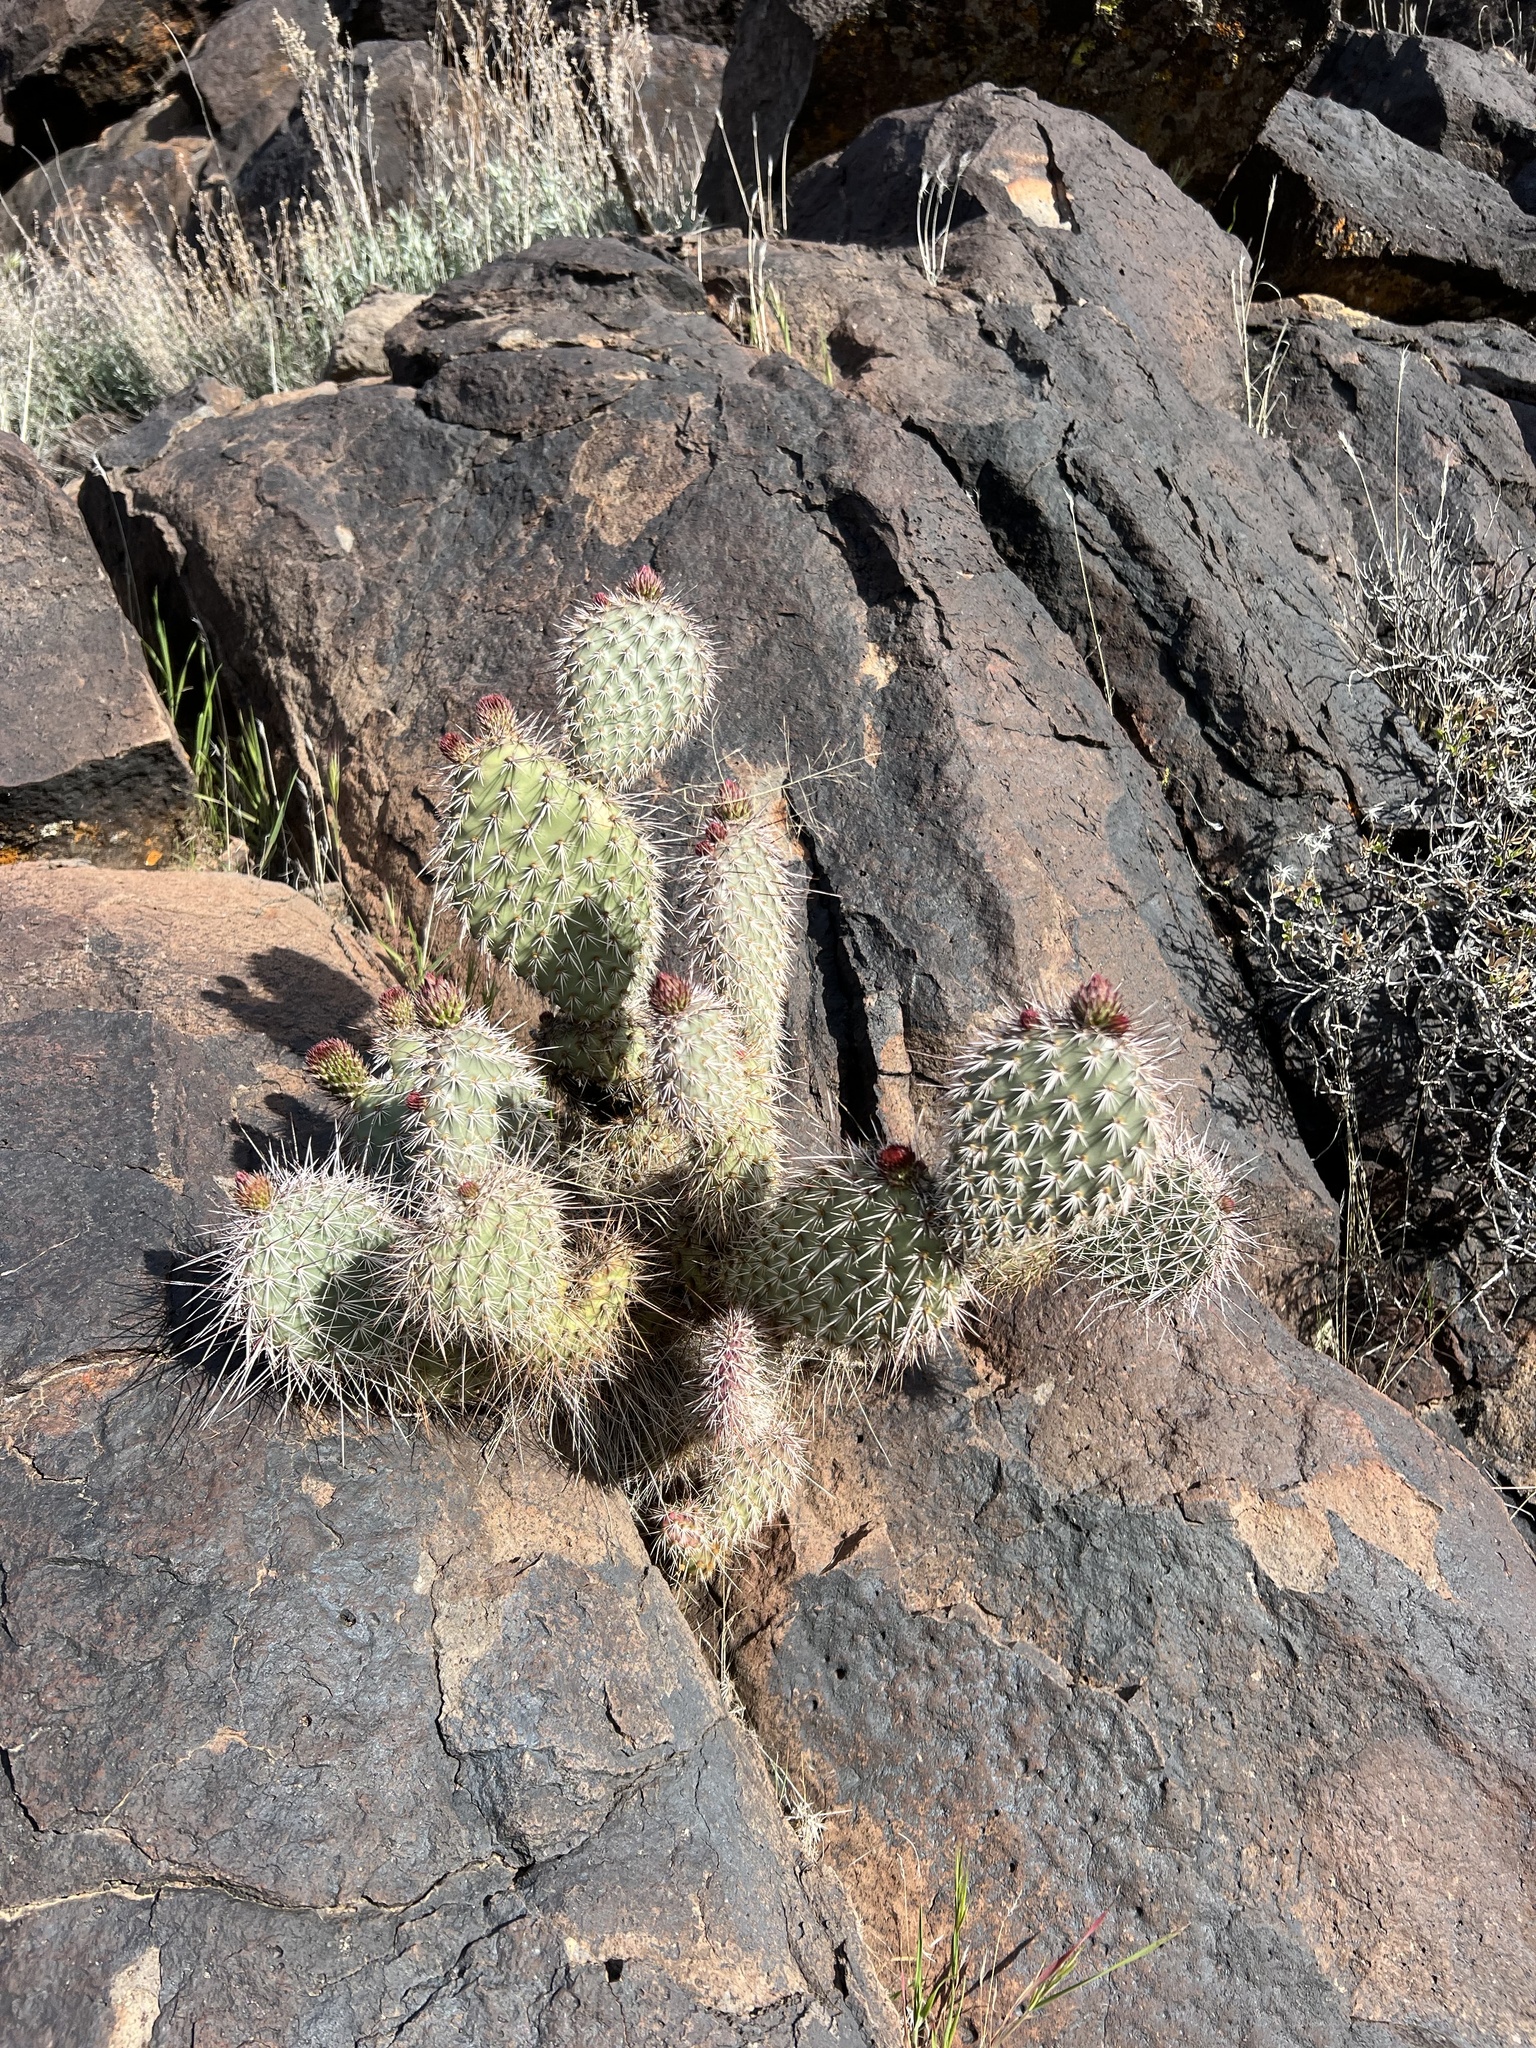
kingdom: Plantae
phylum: Tracheophyta
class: Magnoliopsida
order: Caryophyllales
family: Cactaceae
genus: Opuntia
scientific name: Opuntia polyacantha
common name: Plains prickly-pear
